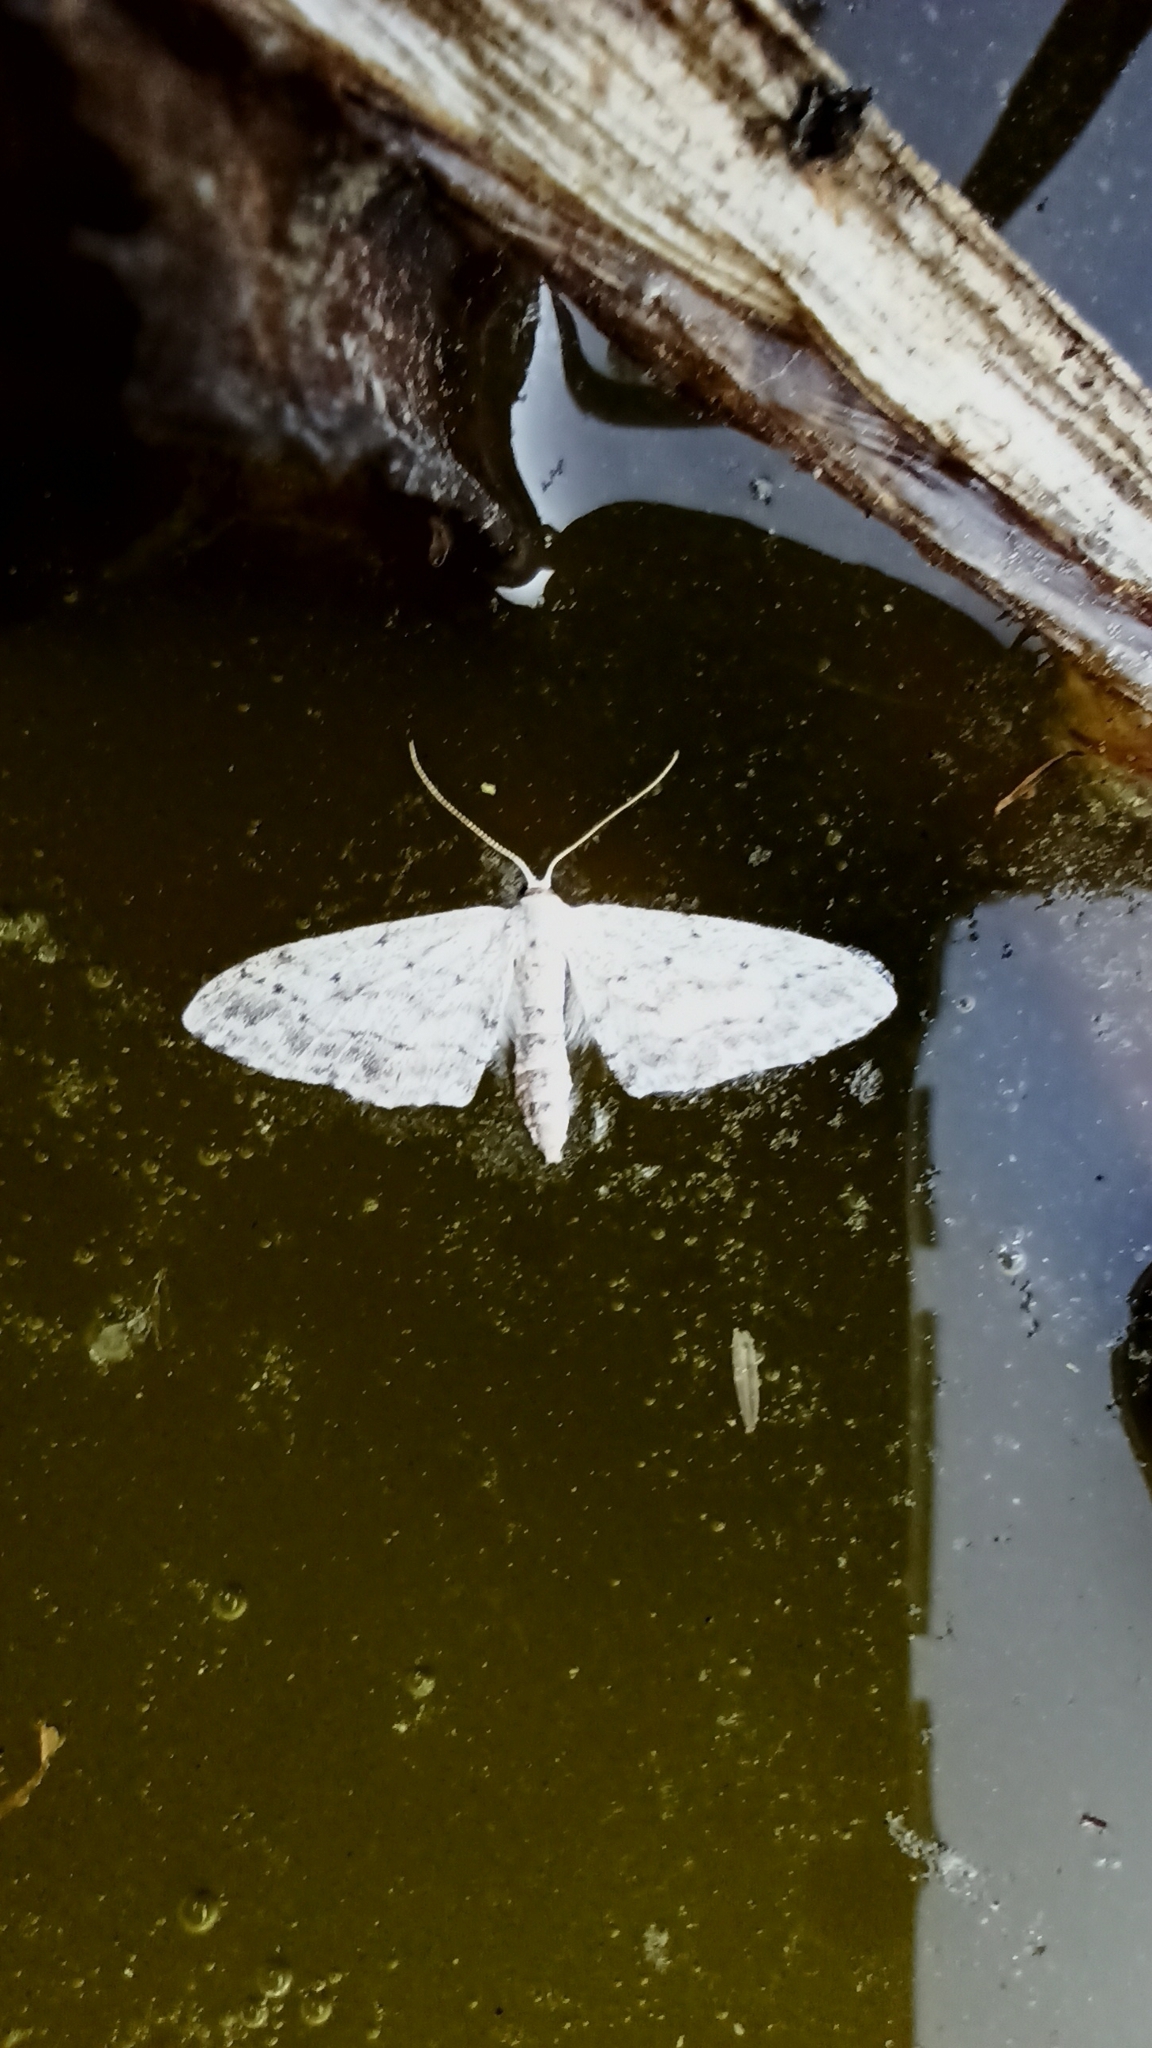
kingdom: Animalia
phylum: Arthropoda
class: Insecta
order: Lepidoptera
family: Geometridae
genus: Idaea
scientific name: Idaea seriata
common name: Small dusty wave
